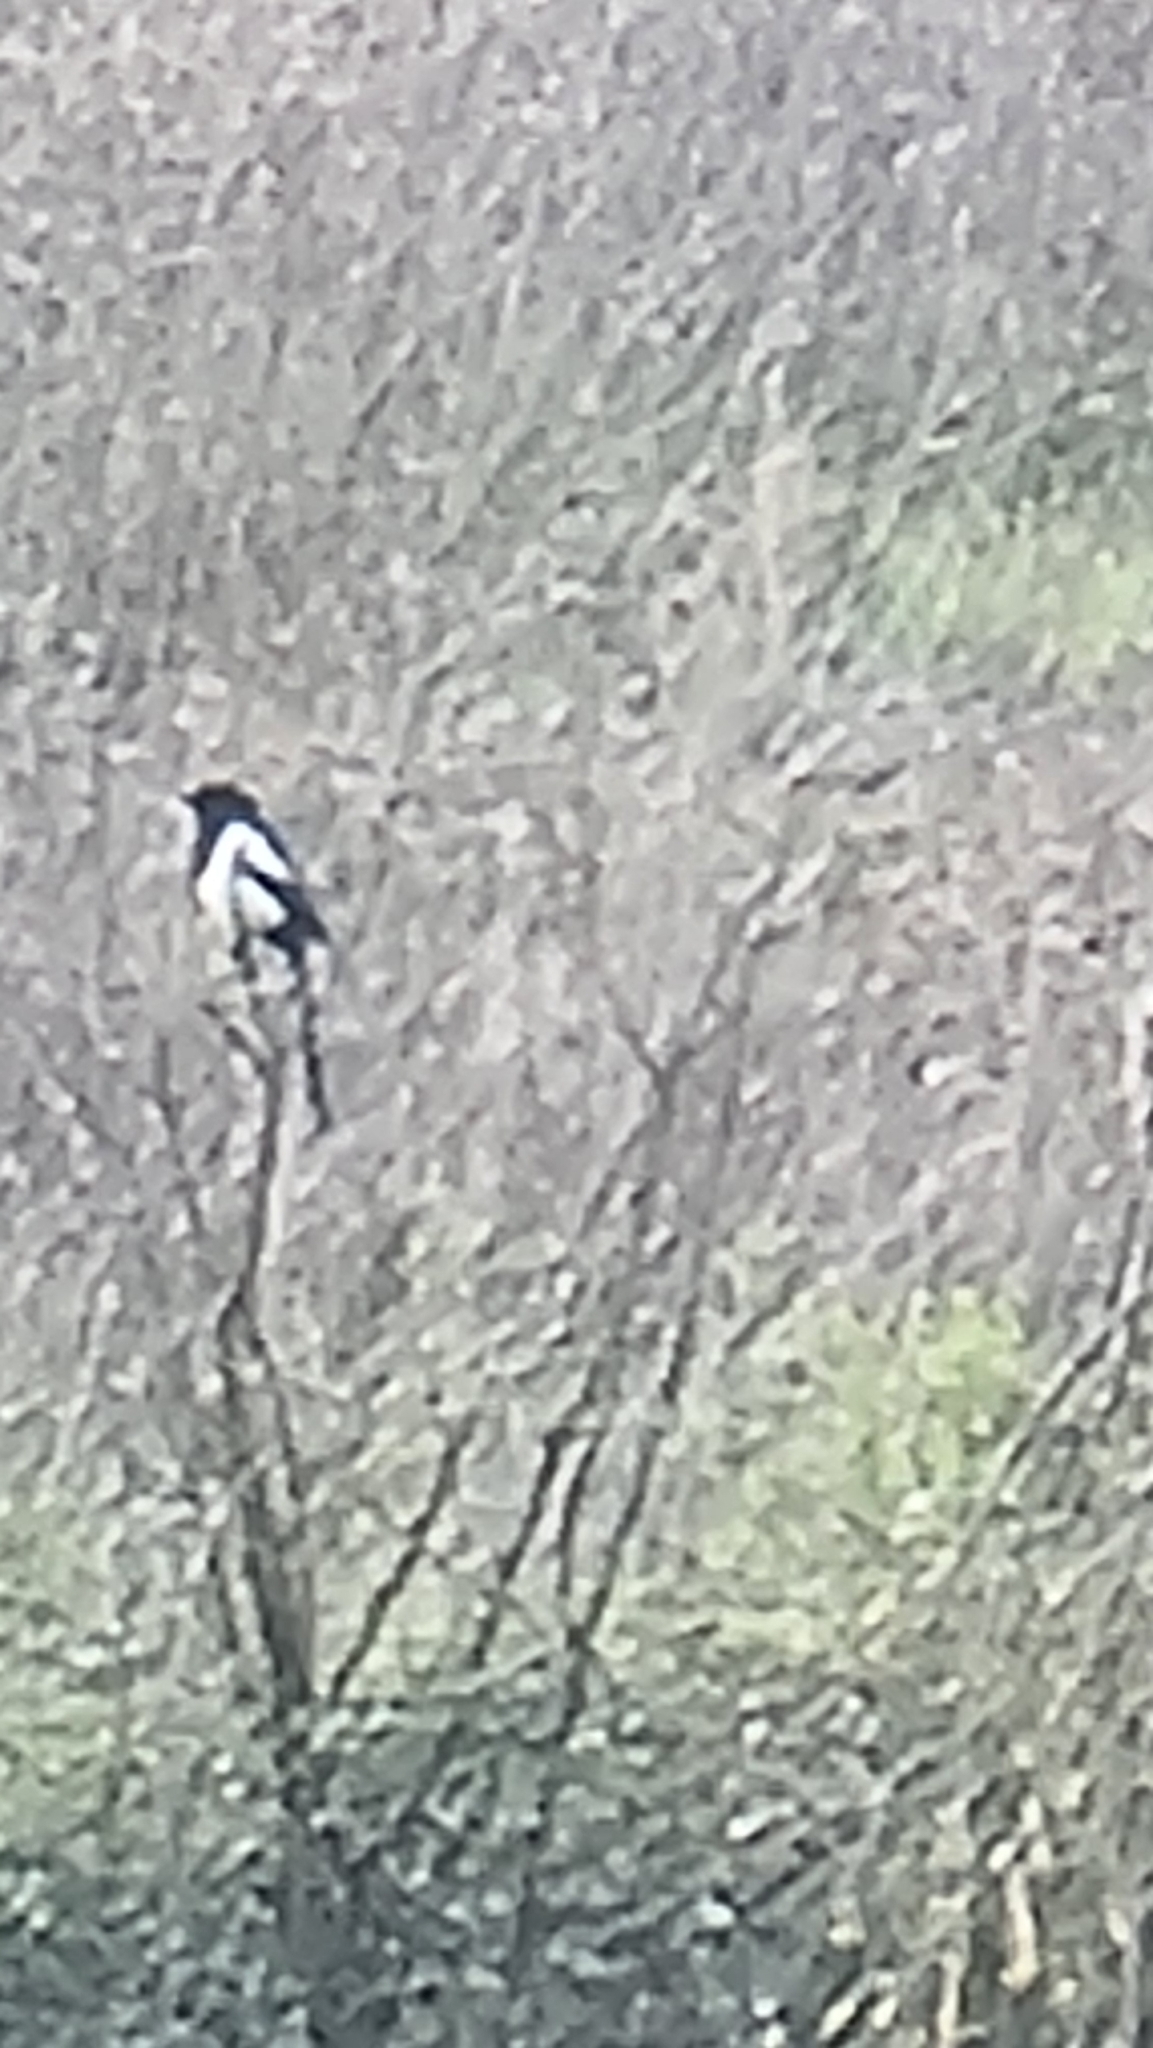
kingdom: Animalia
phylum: Chordata
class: Aves
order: Passeriformes
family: Corvidae
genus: Pica
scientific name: Pica pica
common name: Eurasian magpie
